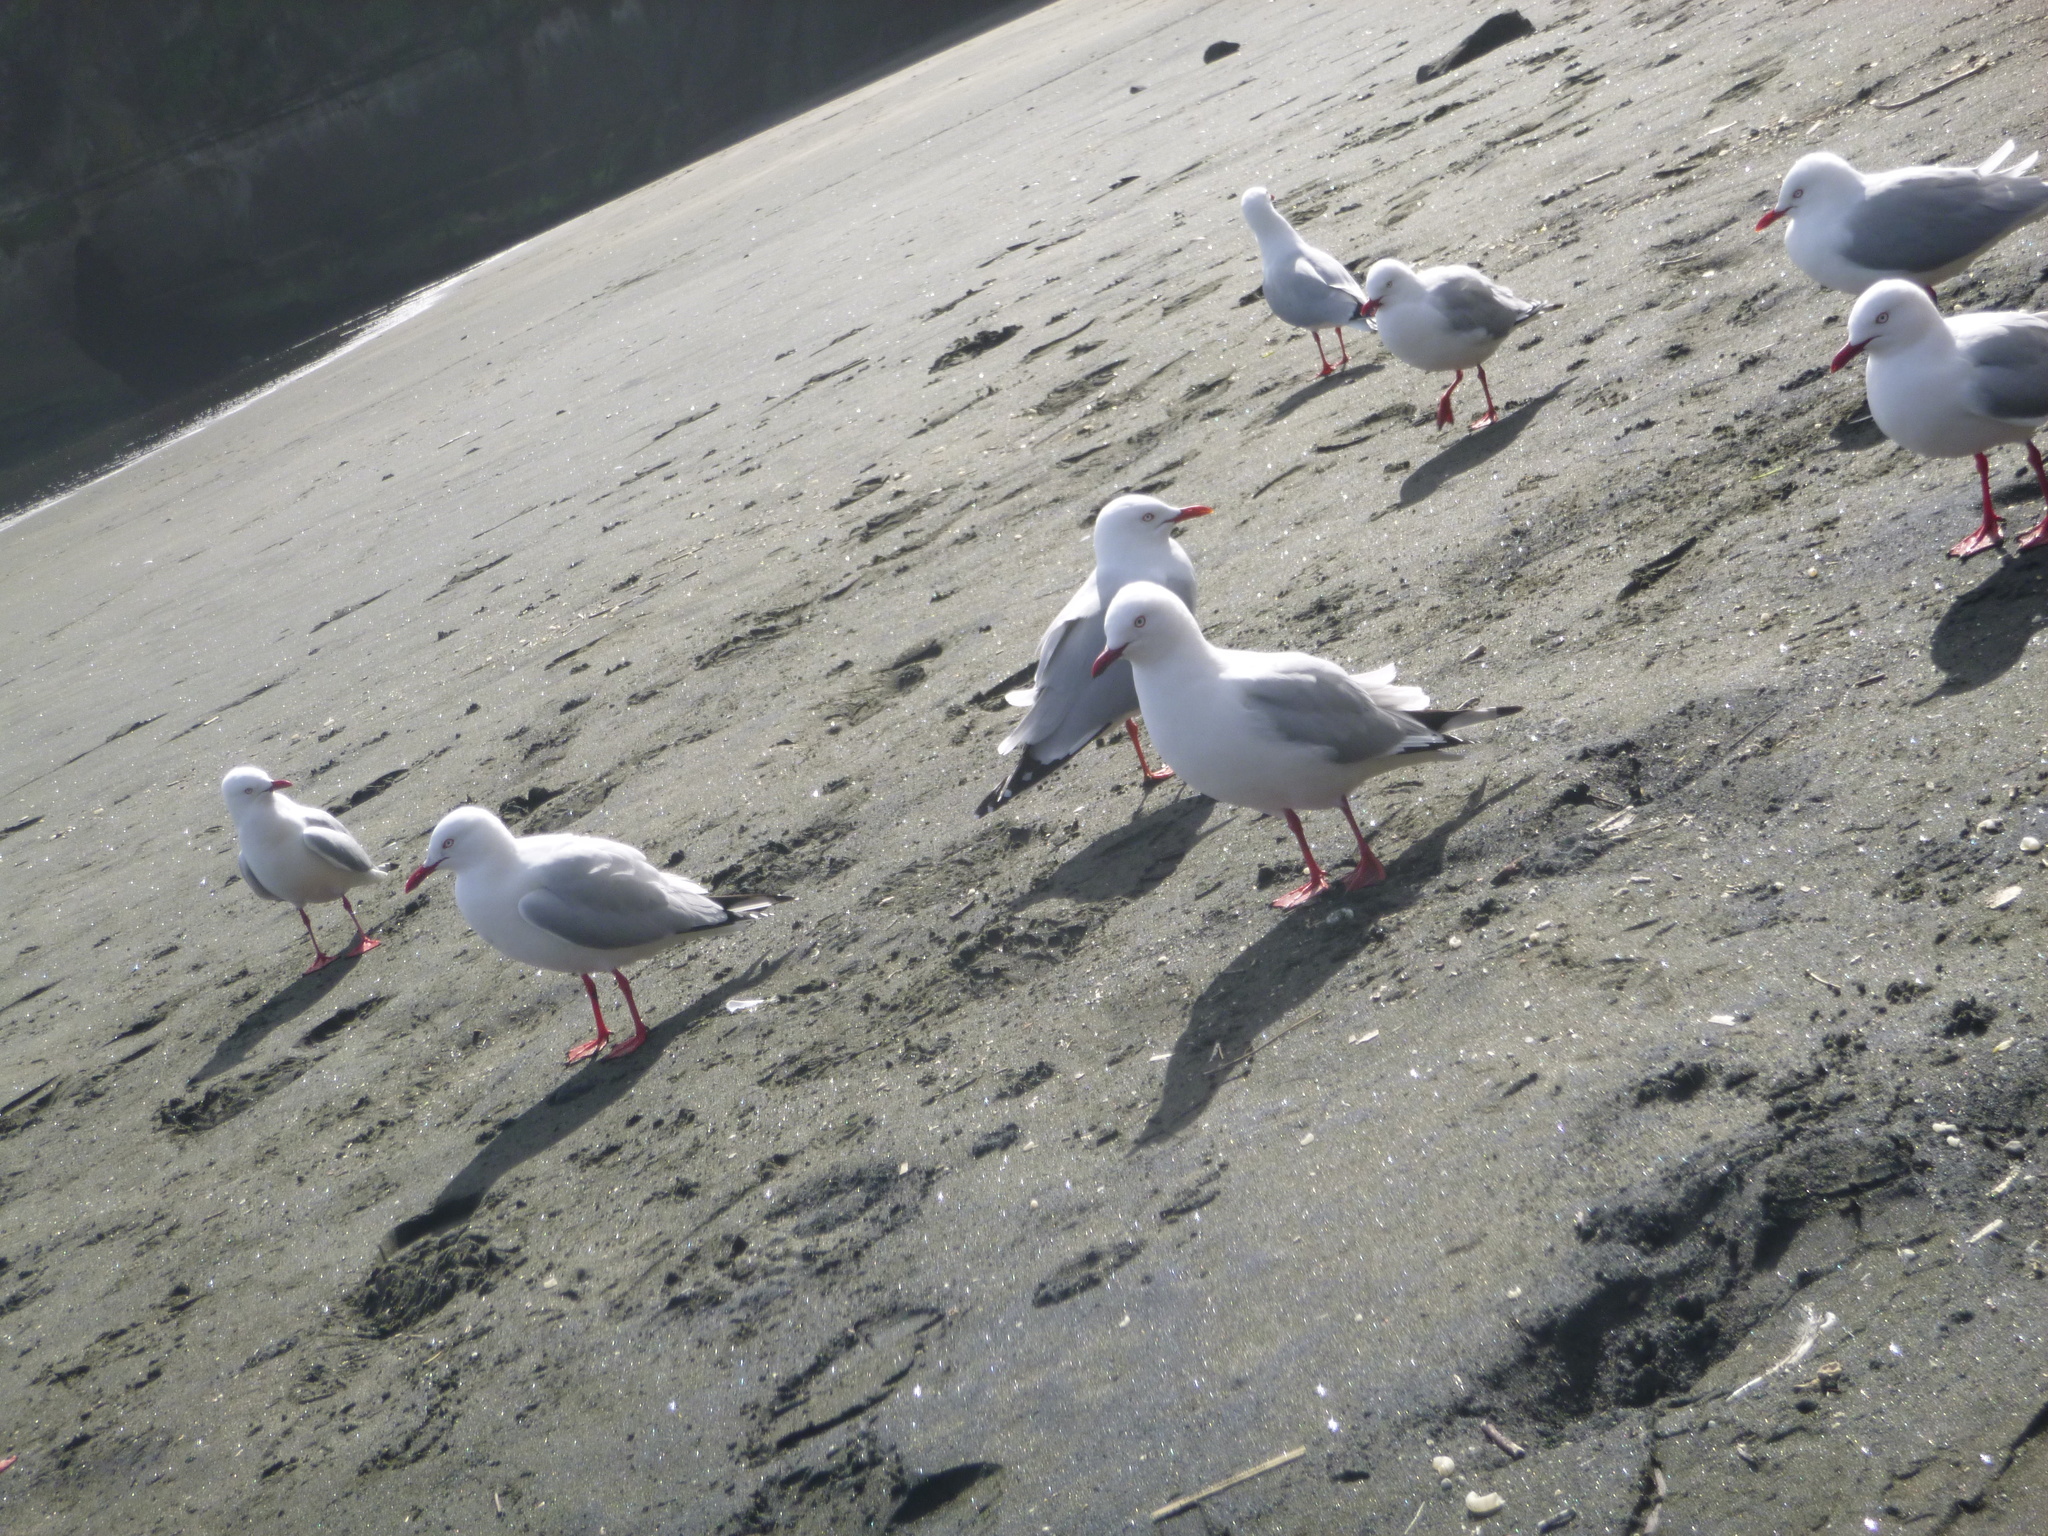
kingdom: Animalia
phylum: Chordata
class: Aves
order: Charadriiformes
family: Laridae
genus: Chroicocephalus
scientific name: Chroicocephalus novaehollandiae
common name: Silver gull
